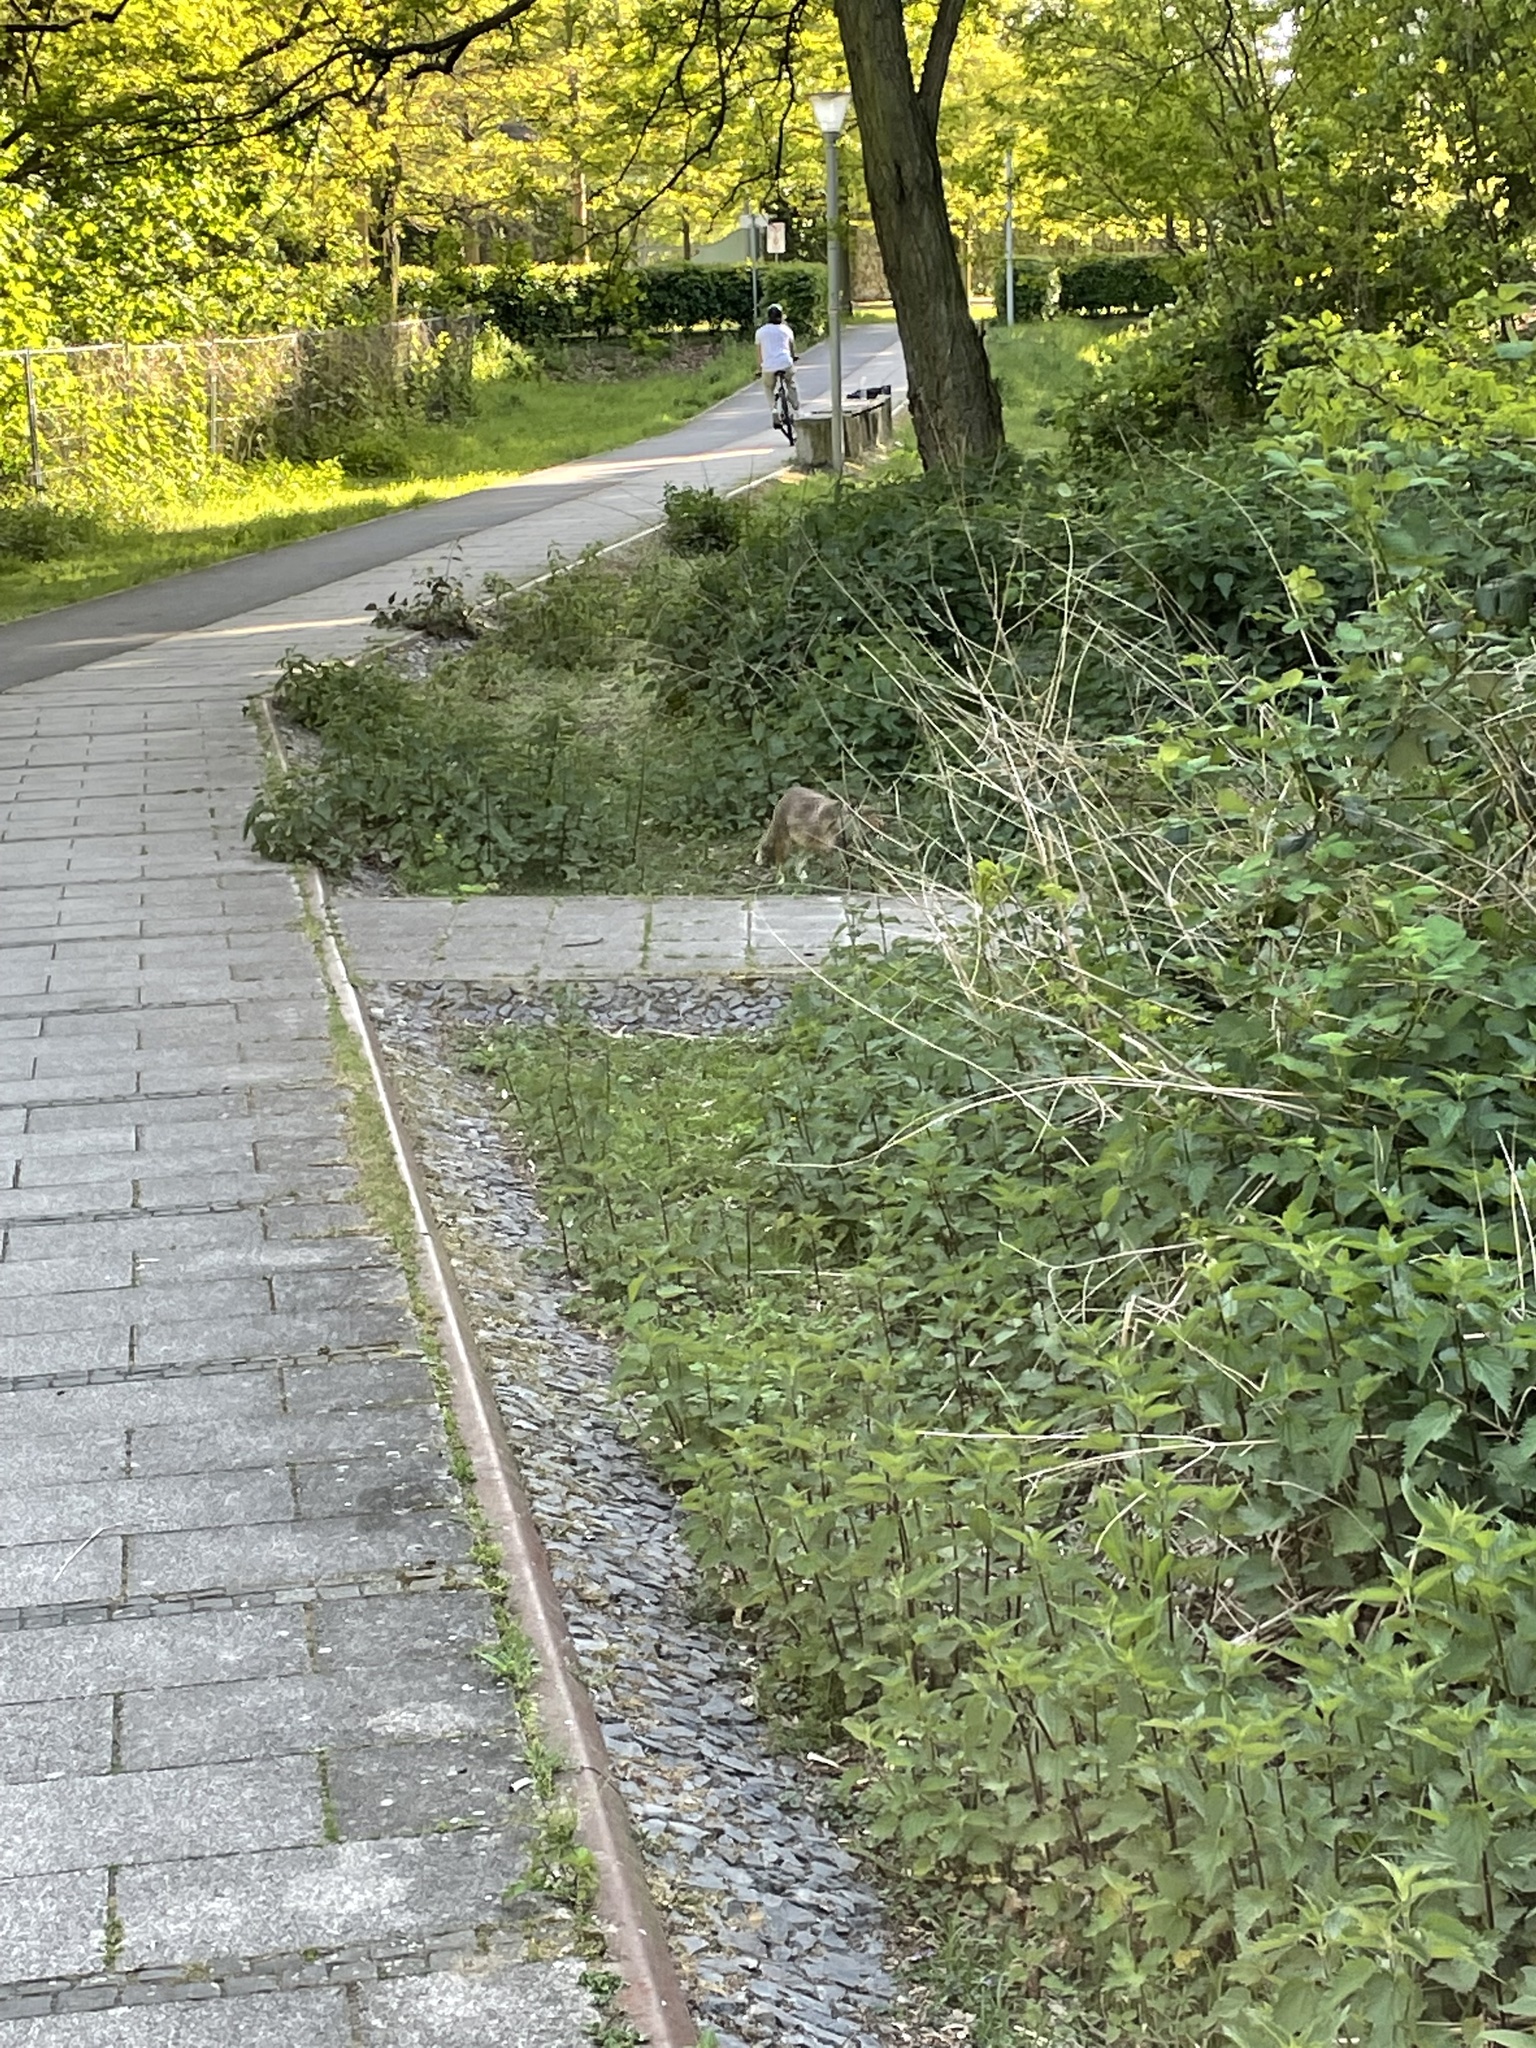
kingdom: Animalia
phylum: Chordata
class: Mammalia
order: Carnivora
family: Canidae
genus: Vulpes
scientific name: Vulpes vulpes
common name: Red fox
